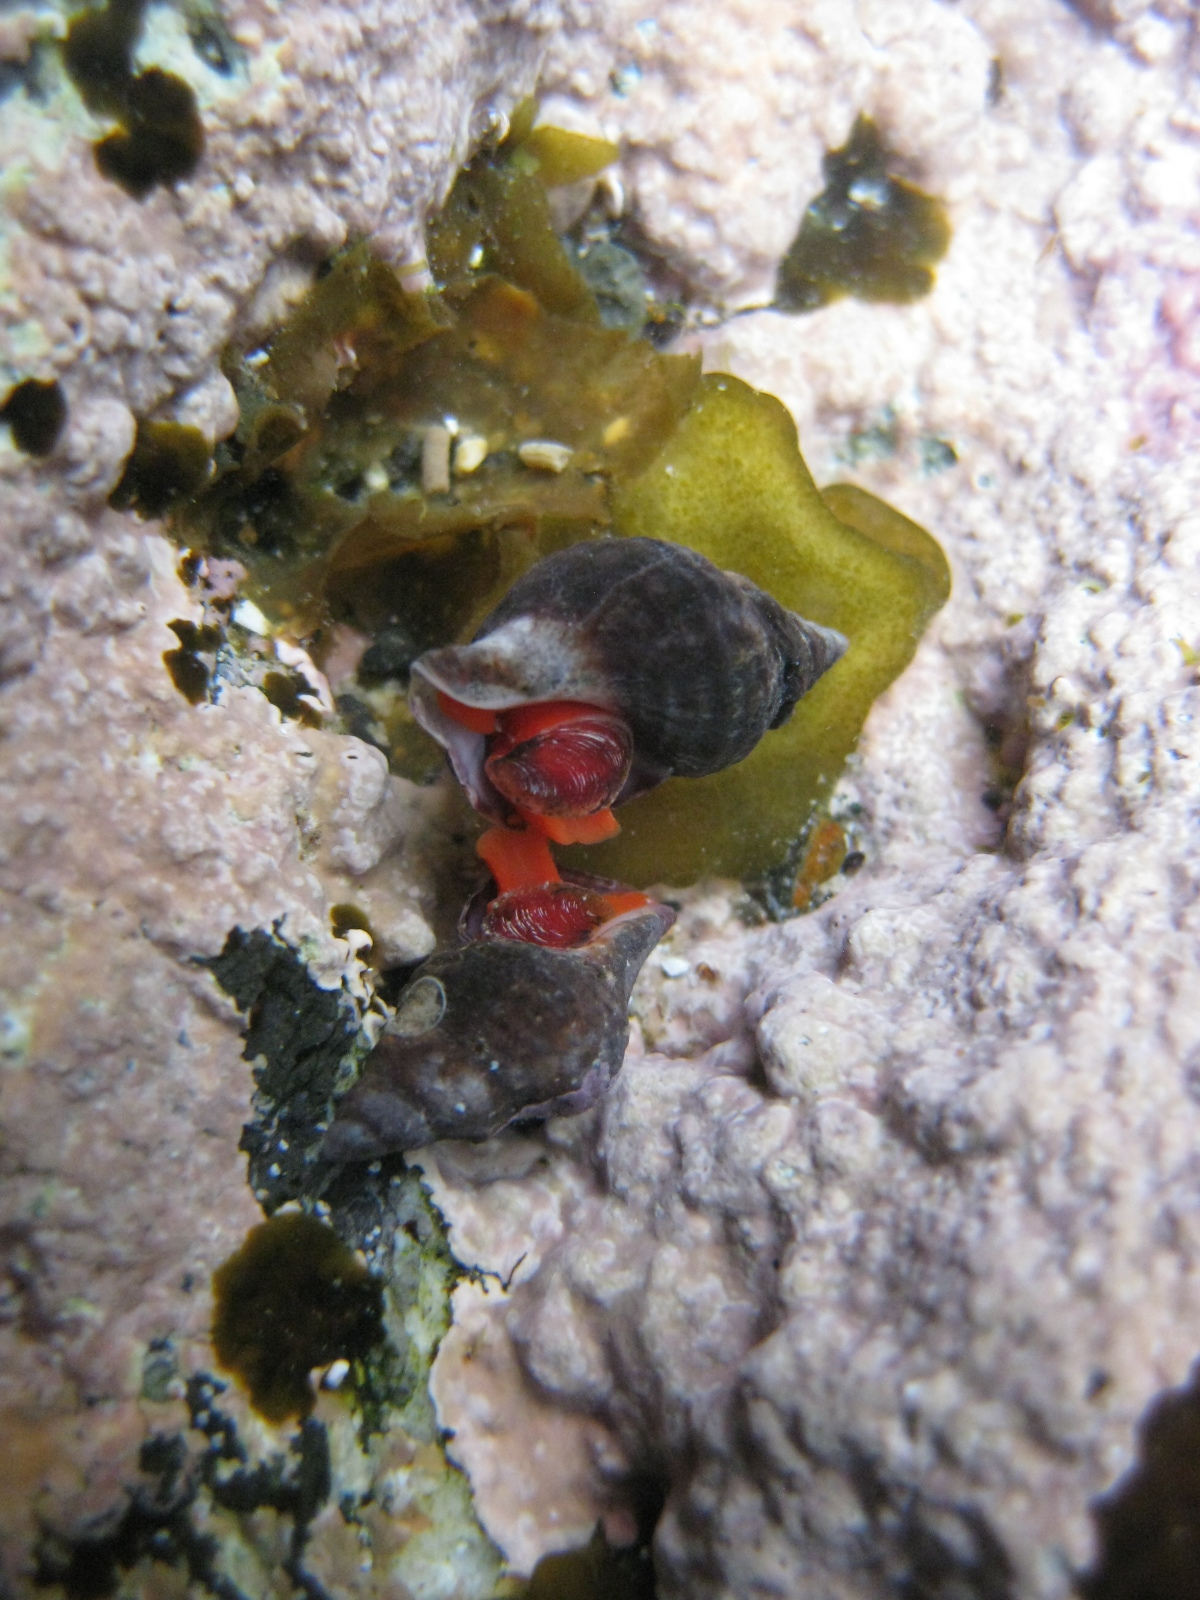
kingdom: Animalia
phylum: Mollusca
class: Gastropoda
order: Neogastropoda
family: Fasciolariidae
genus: Taron
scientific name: Taron dubius
